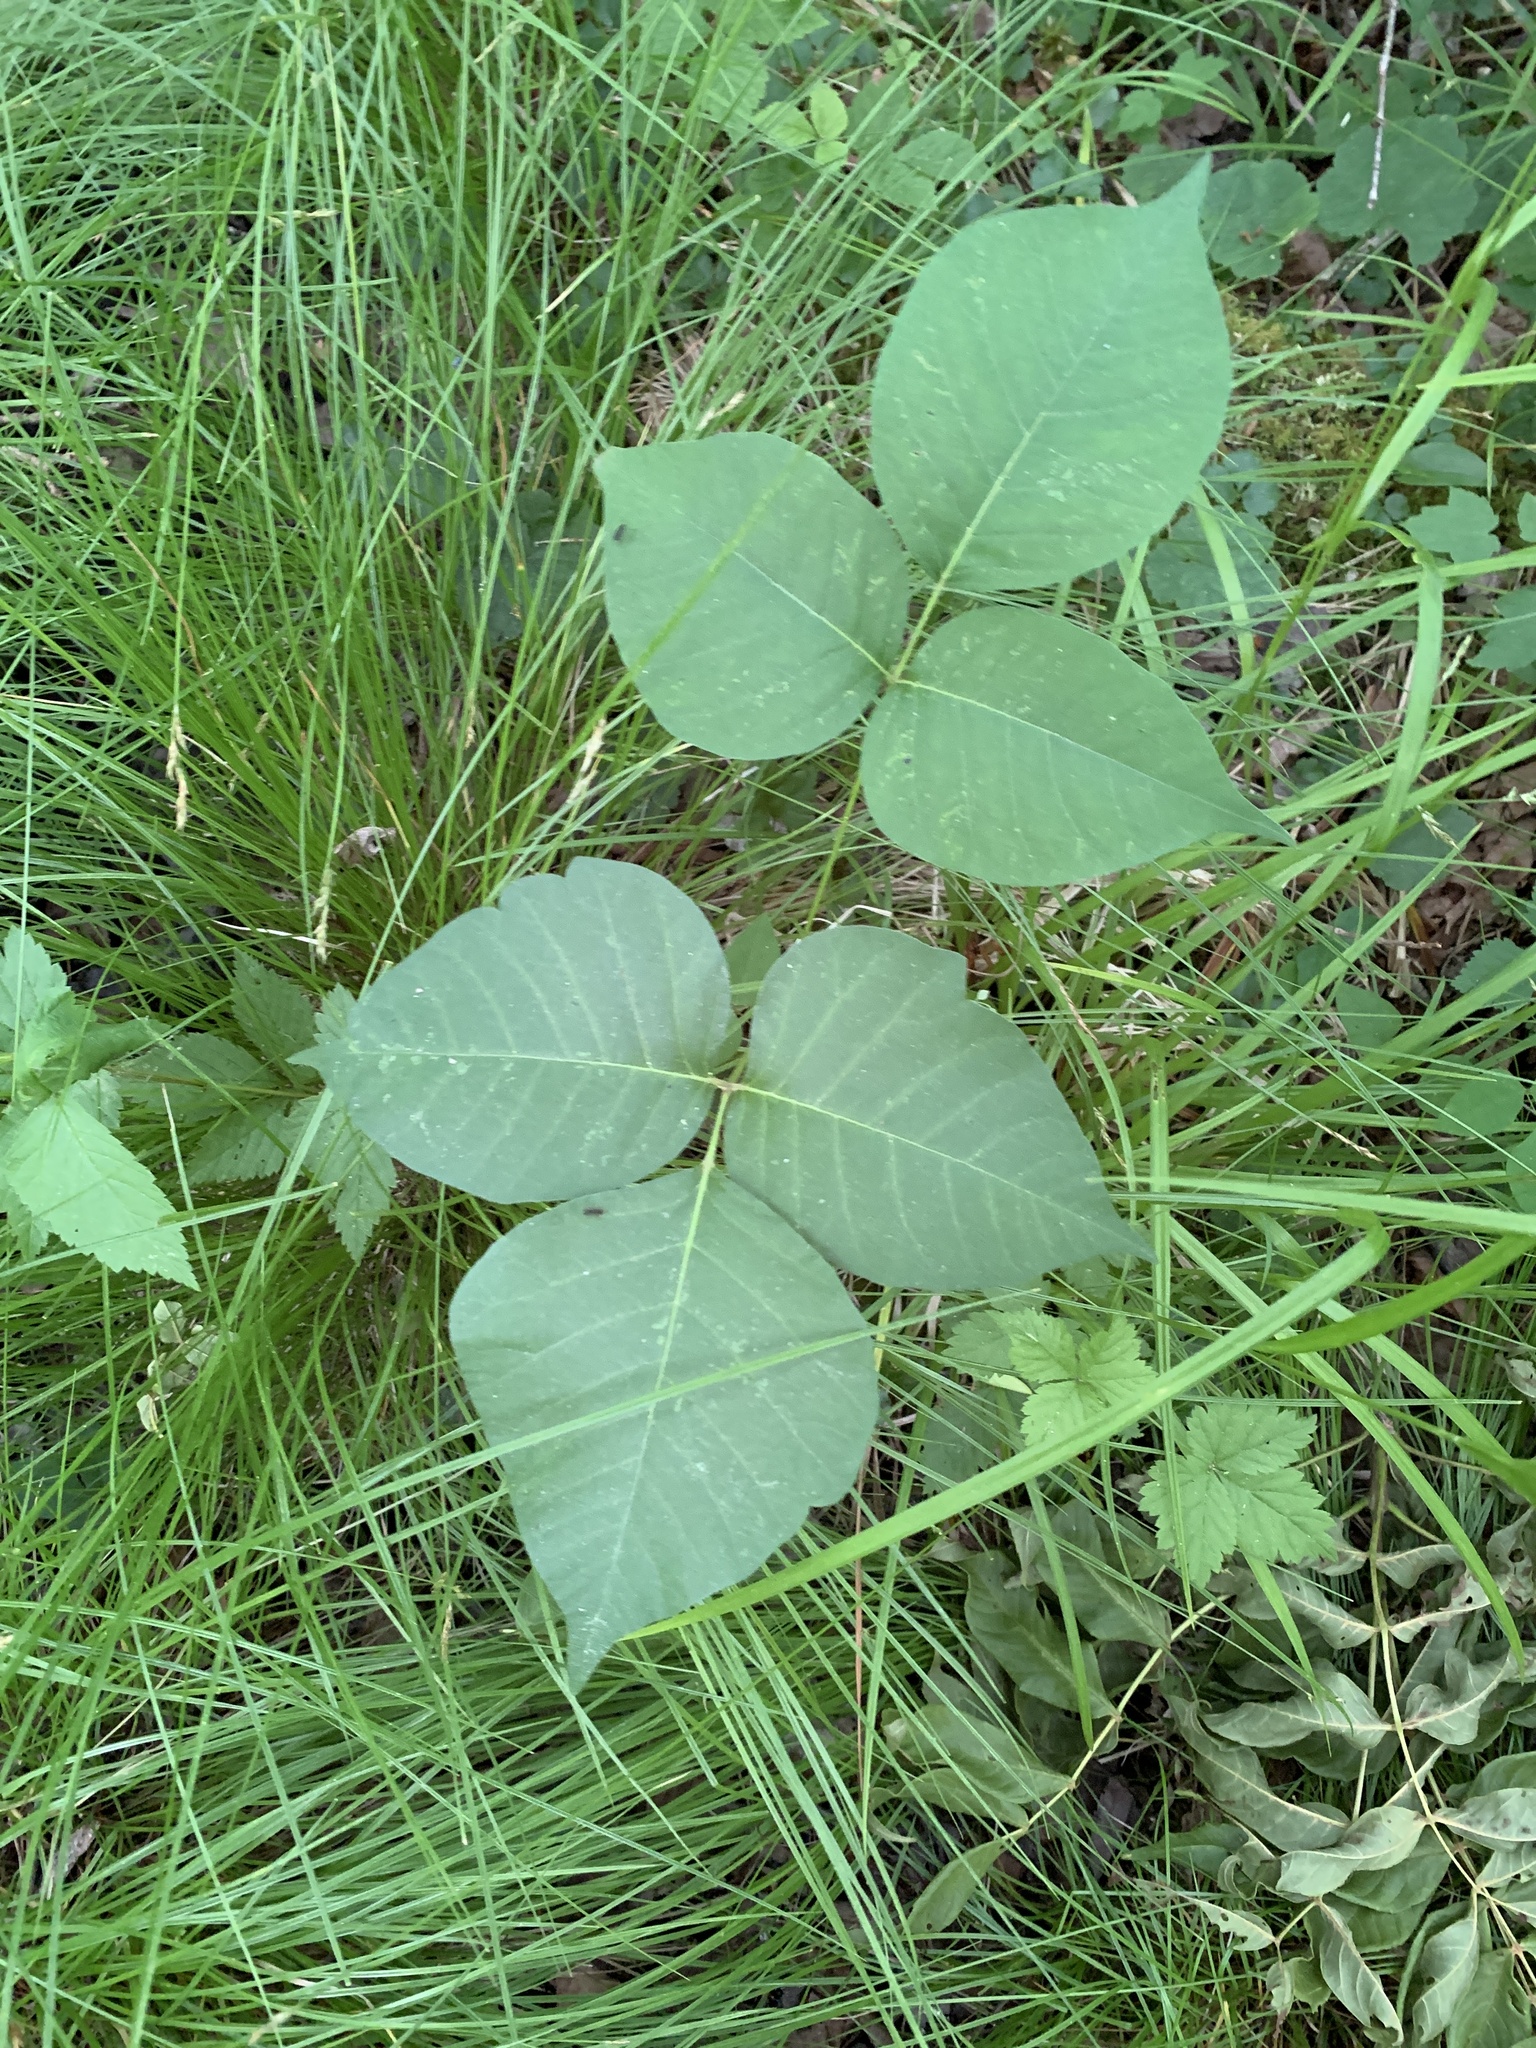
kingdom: Plantae
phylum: Tracheophyta
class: Magnoliopsida
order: Sapindales
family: Anacardiaceae
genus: Toxicodendron
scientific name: Toxicodendron rydbergii
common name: Rydberg's poison-ivy
